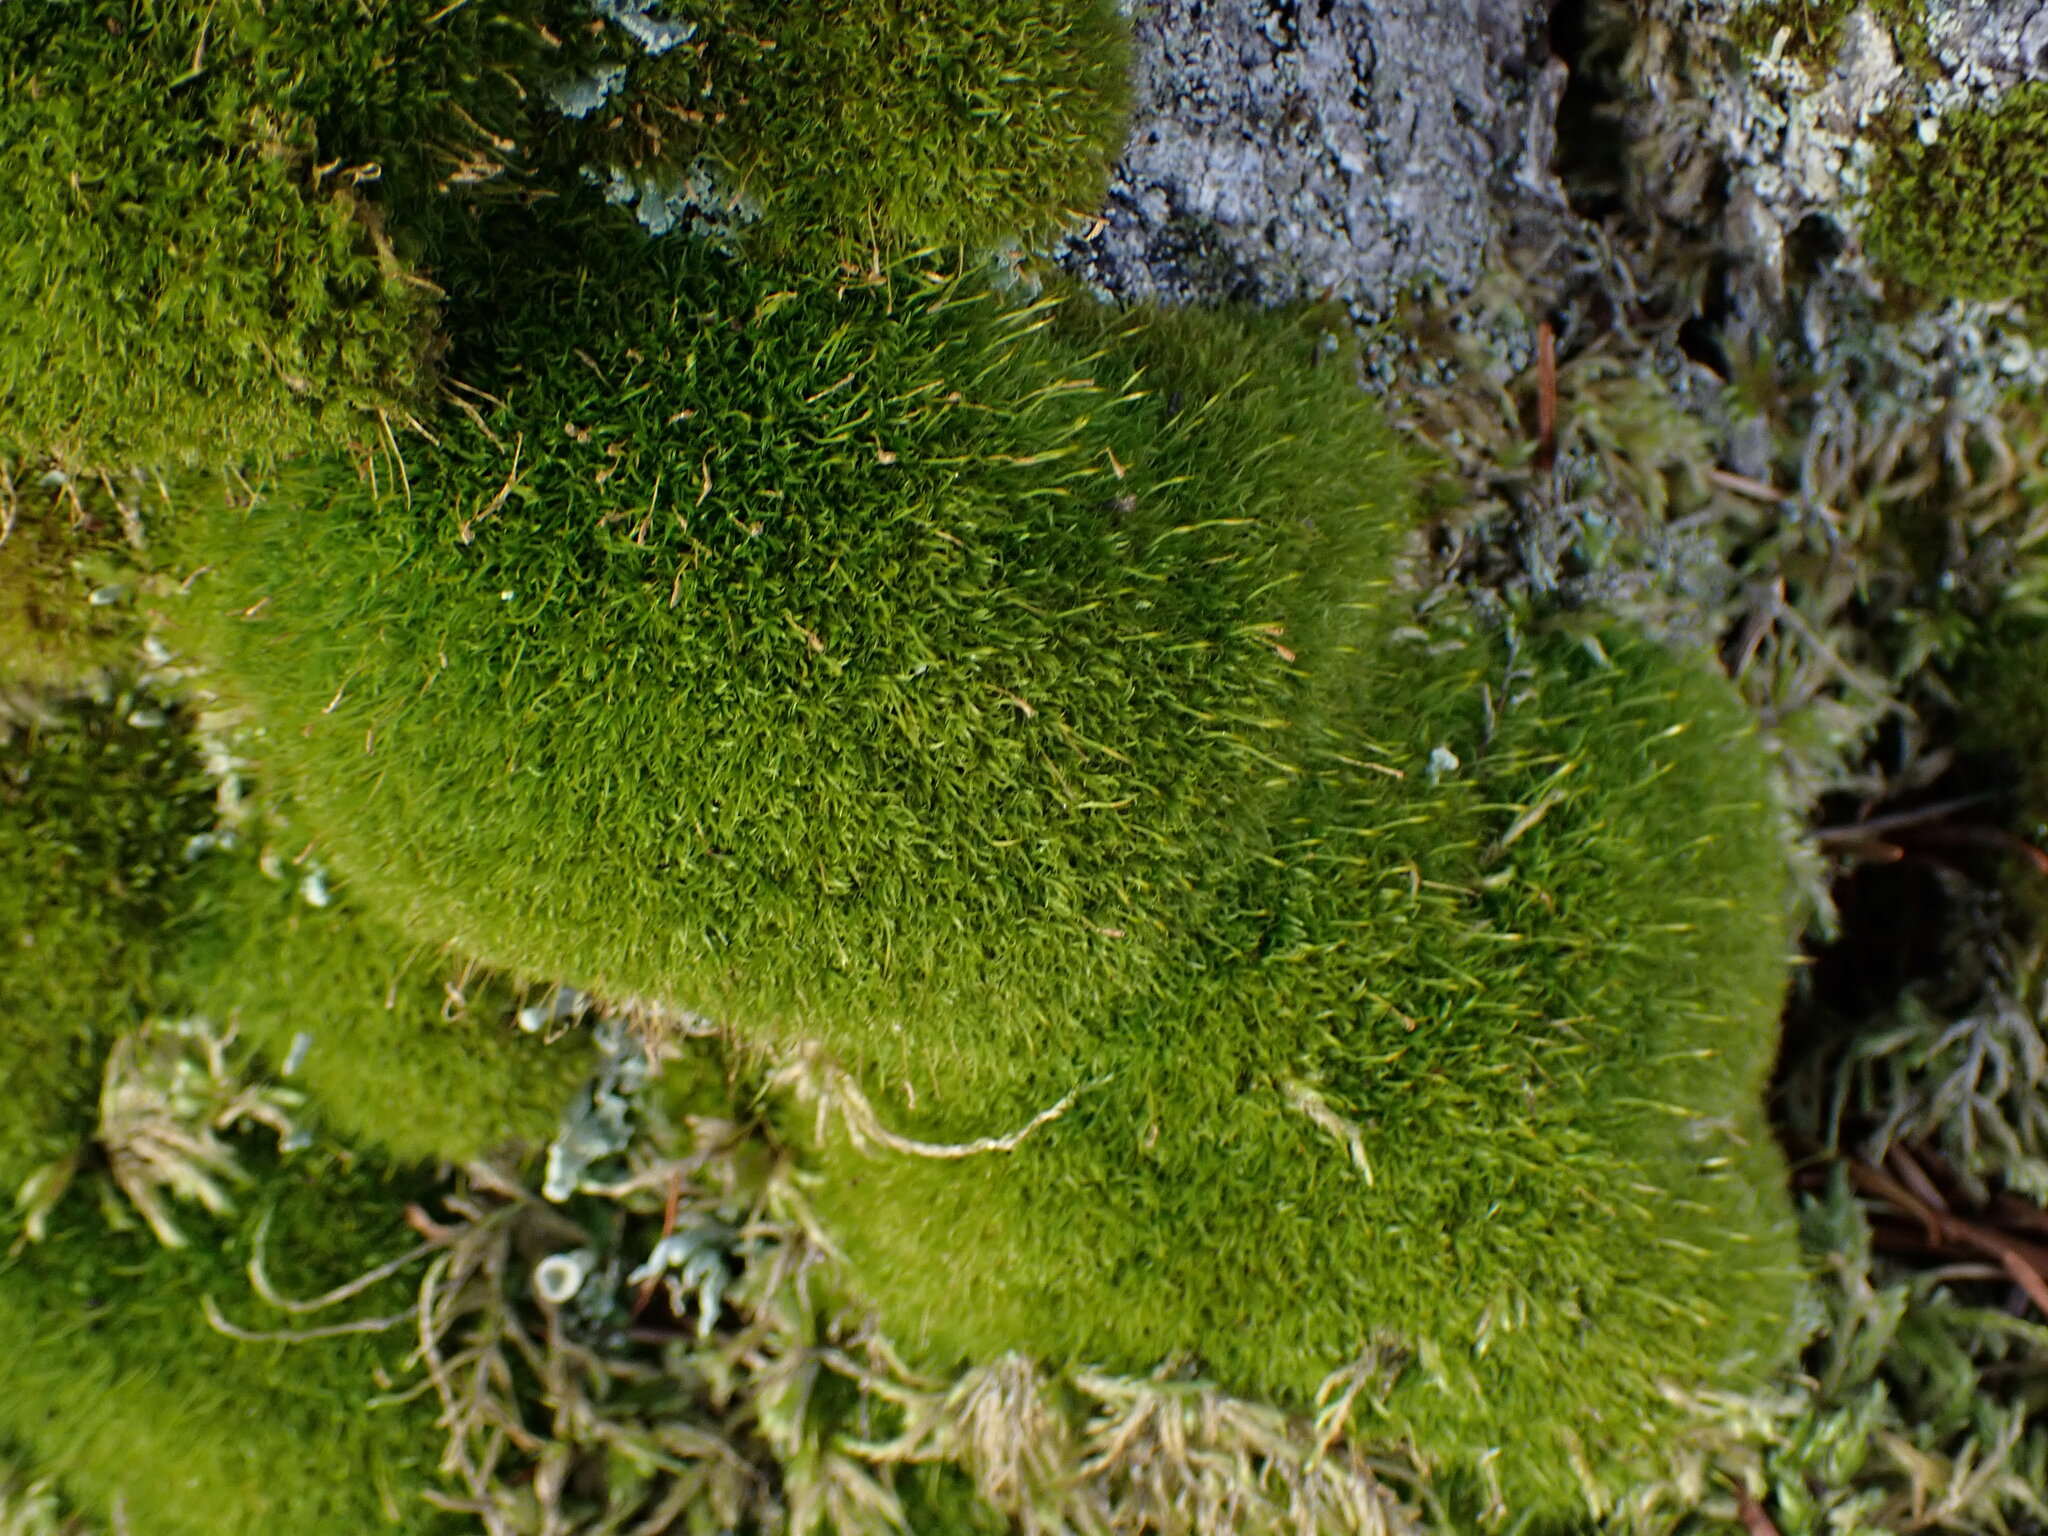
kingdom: Plantae
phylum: Bryophyta
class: Bryopsida
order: Dicranales
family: Rhabdoweisiaceae
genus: Dicranoweisia
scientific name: Dicranoweisia cirrata
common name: Common pincushion
